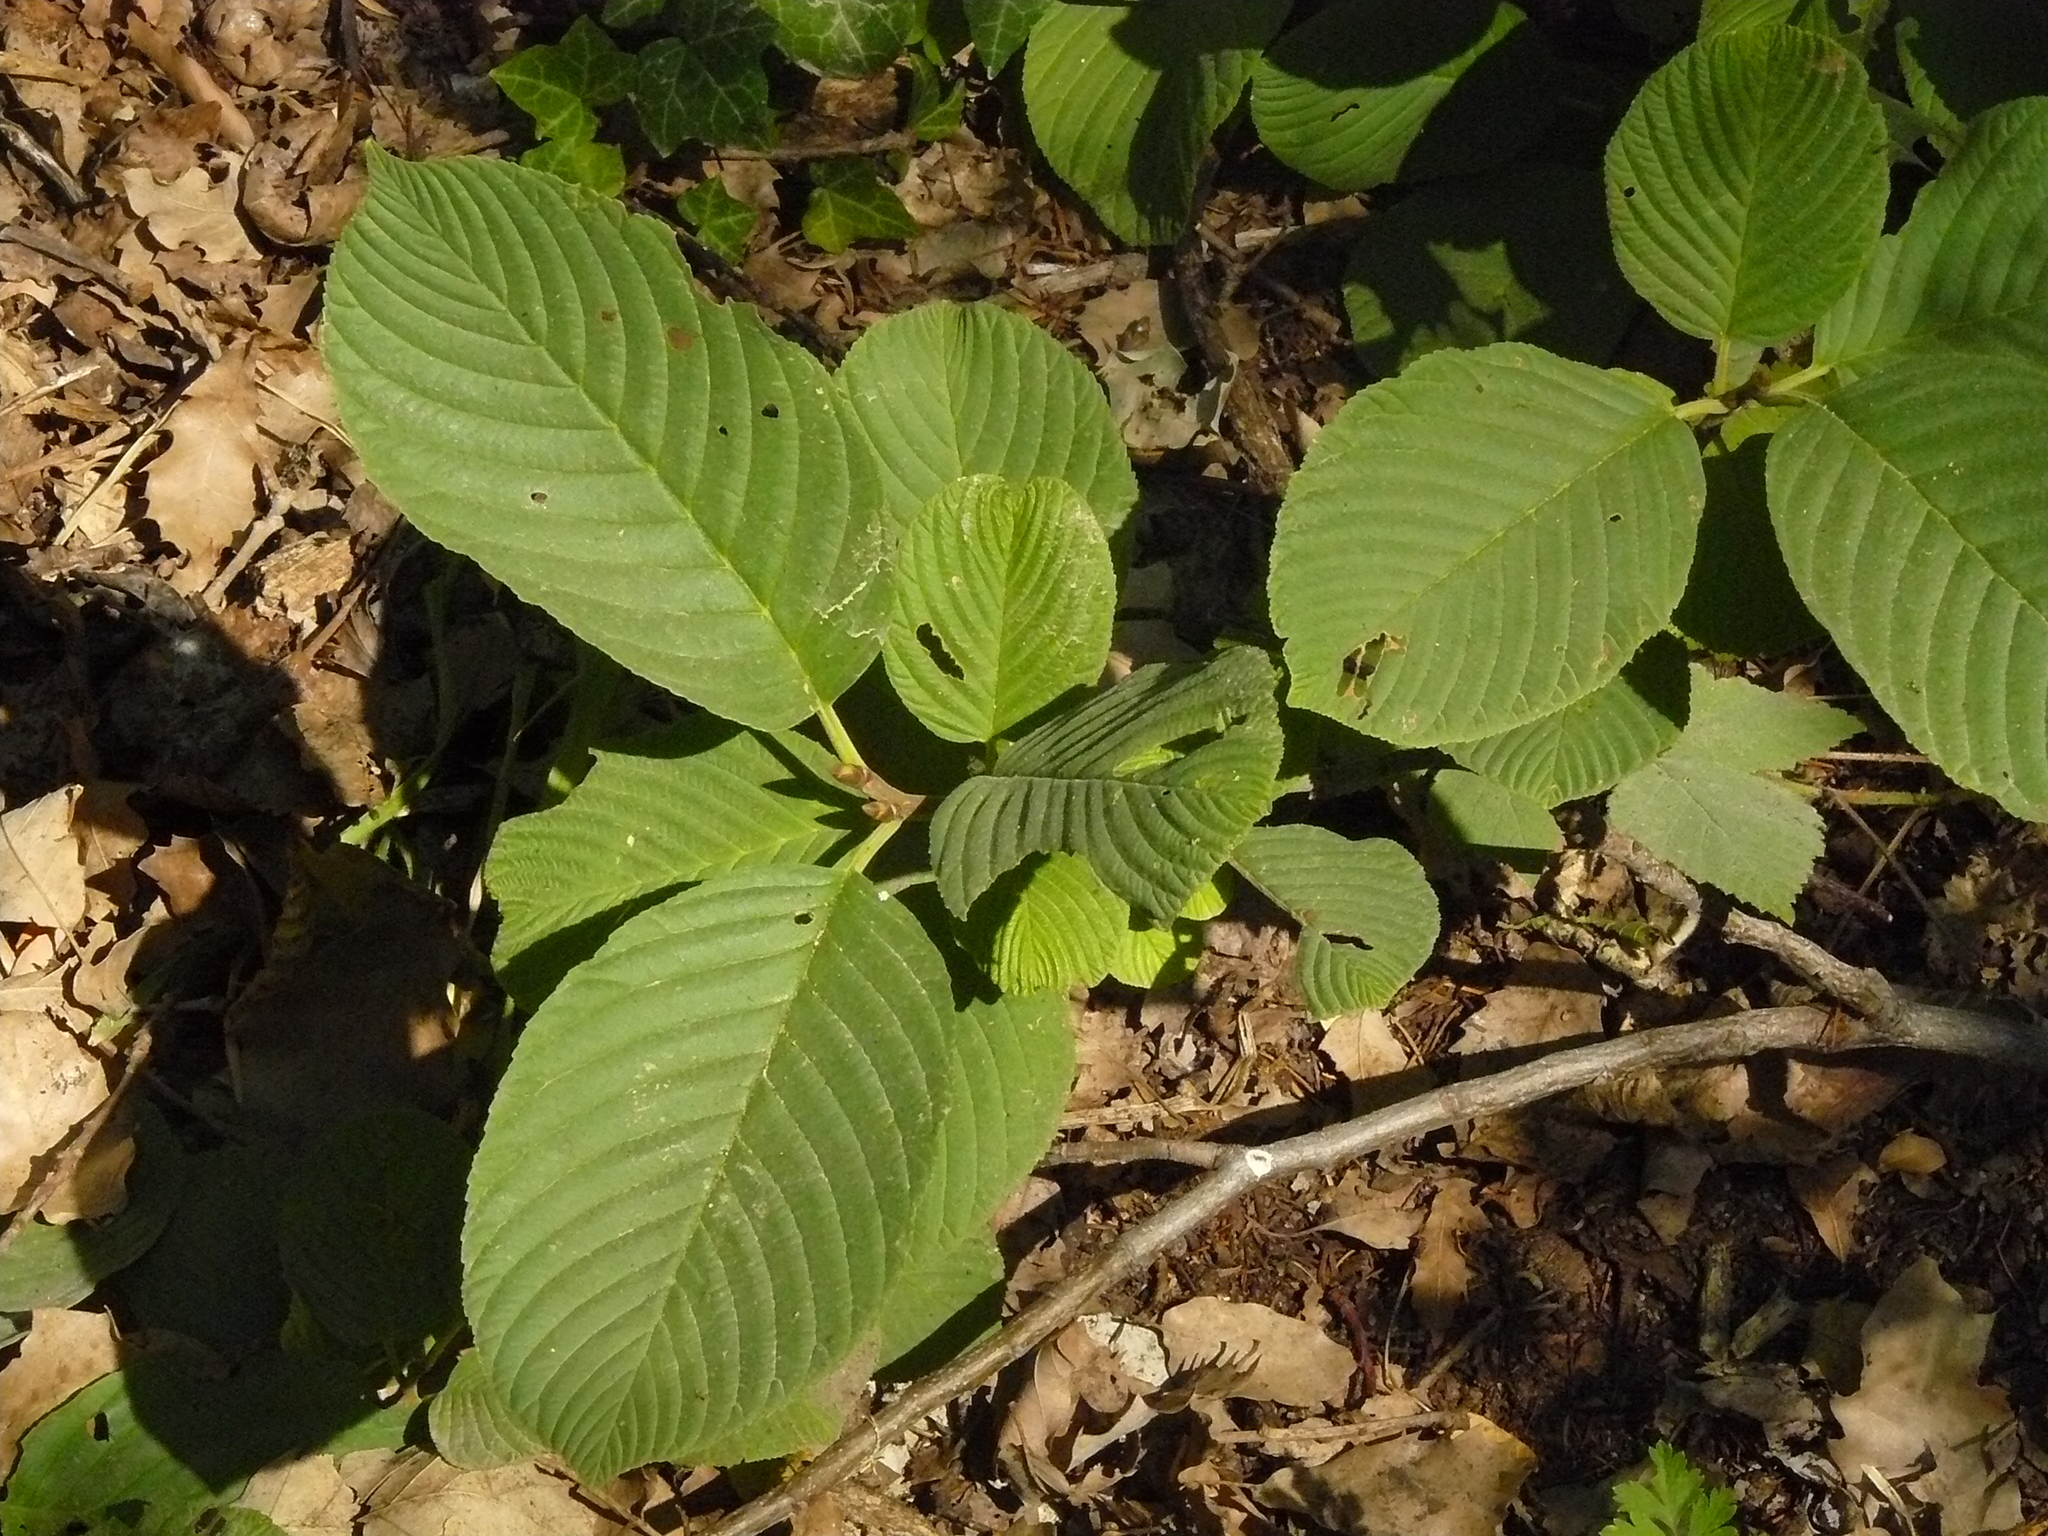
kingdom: Plantae
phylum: Tracheophyta
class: Magnoliopsida
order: Rosales
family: Rhamnaceae
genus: Atadinus
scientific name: Atadinus libanoticus
